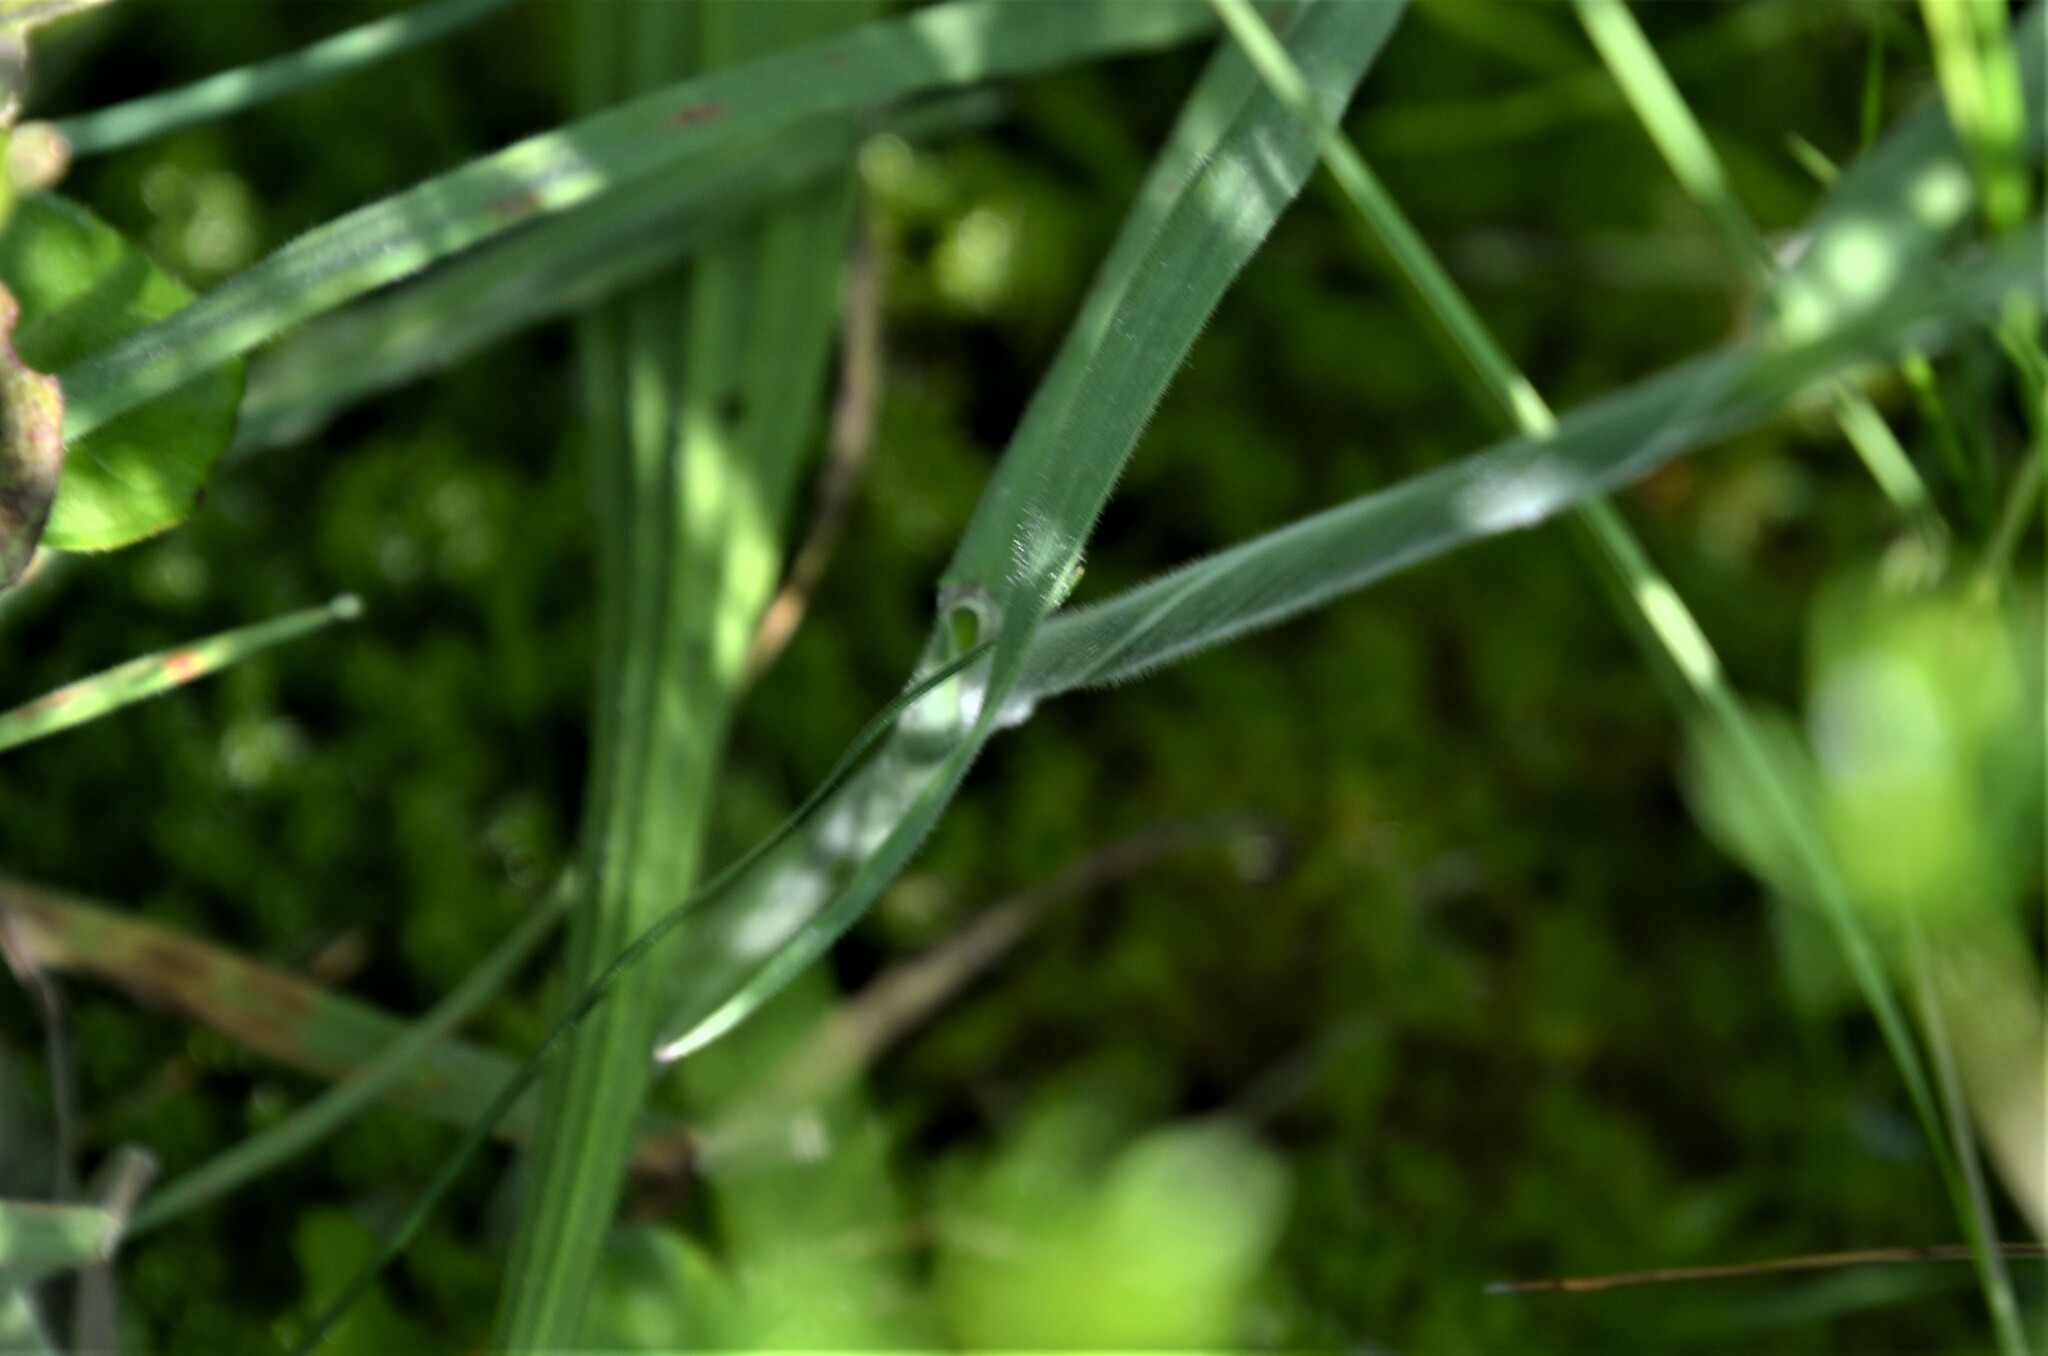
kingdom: Plantae
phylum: Tracheophyta
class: Liliopsida
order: Poales
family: Poaceae
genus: Holcus
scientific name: Holcus lanatus
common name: Yorkshire-fog
